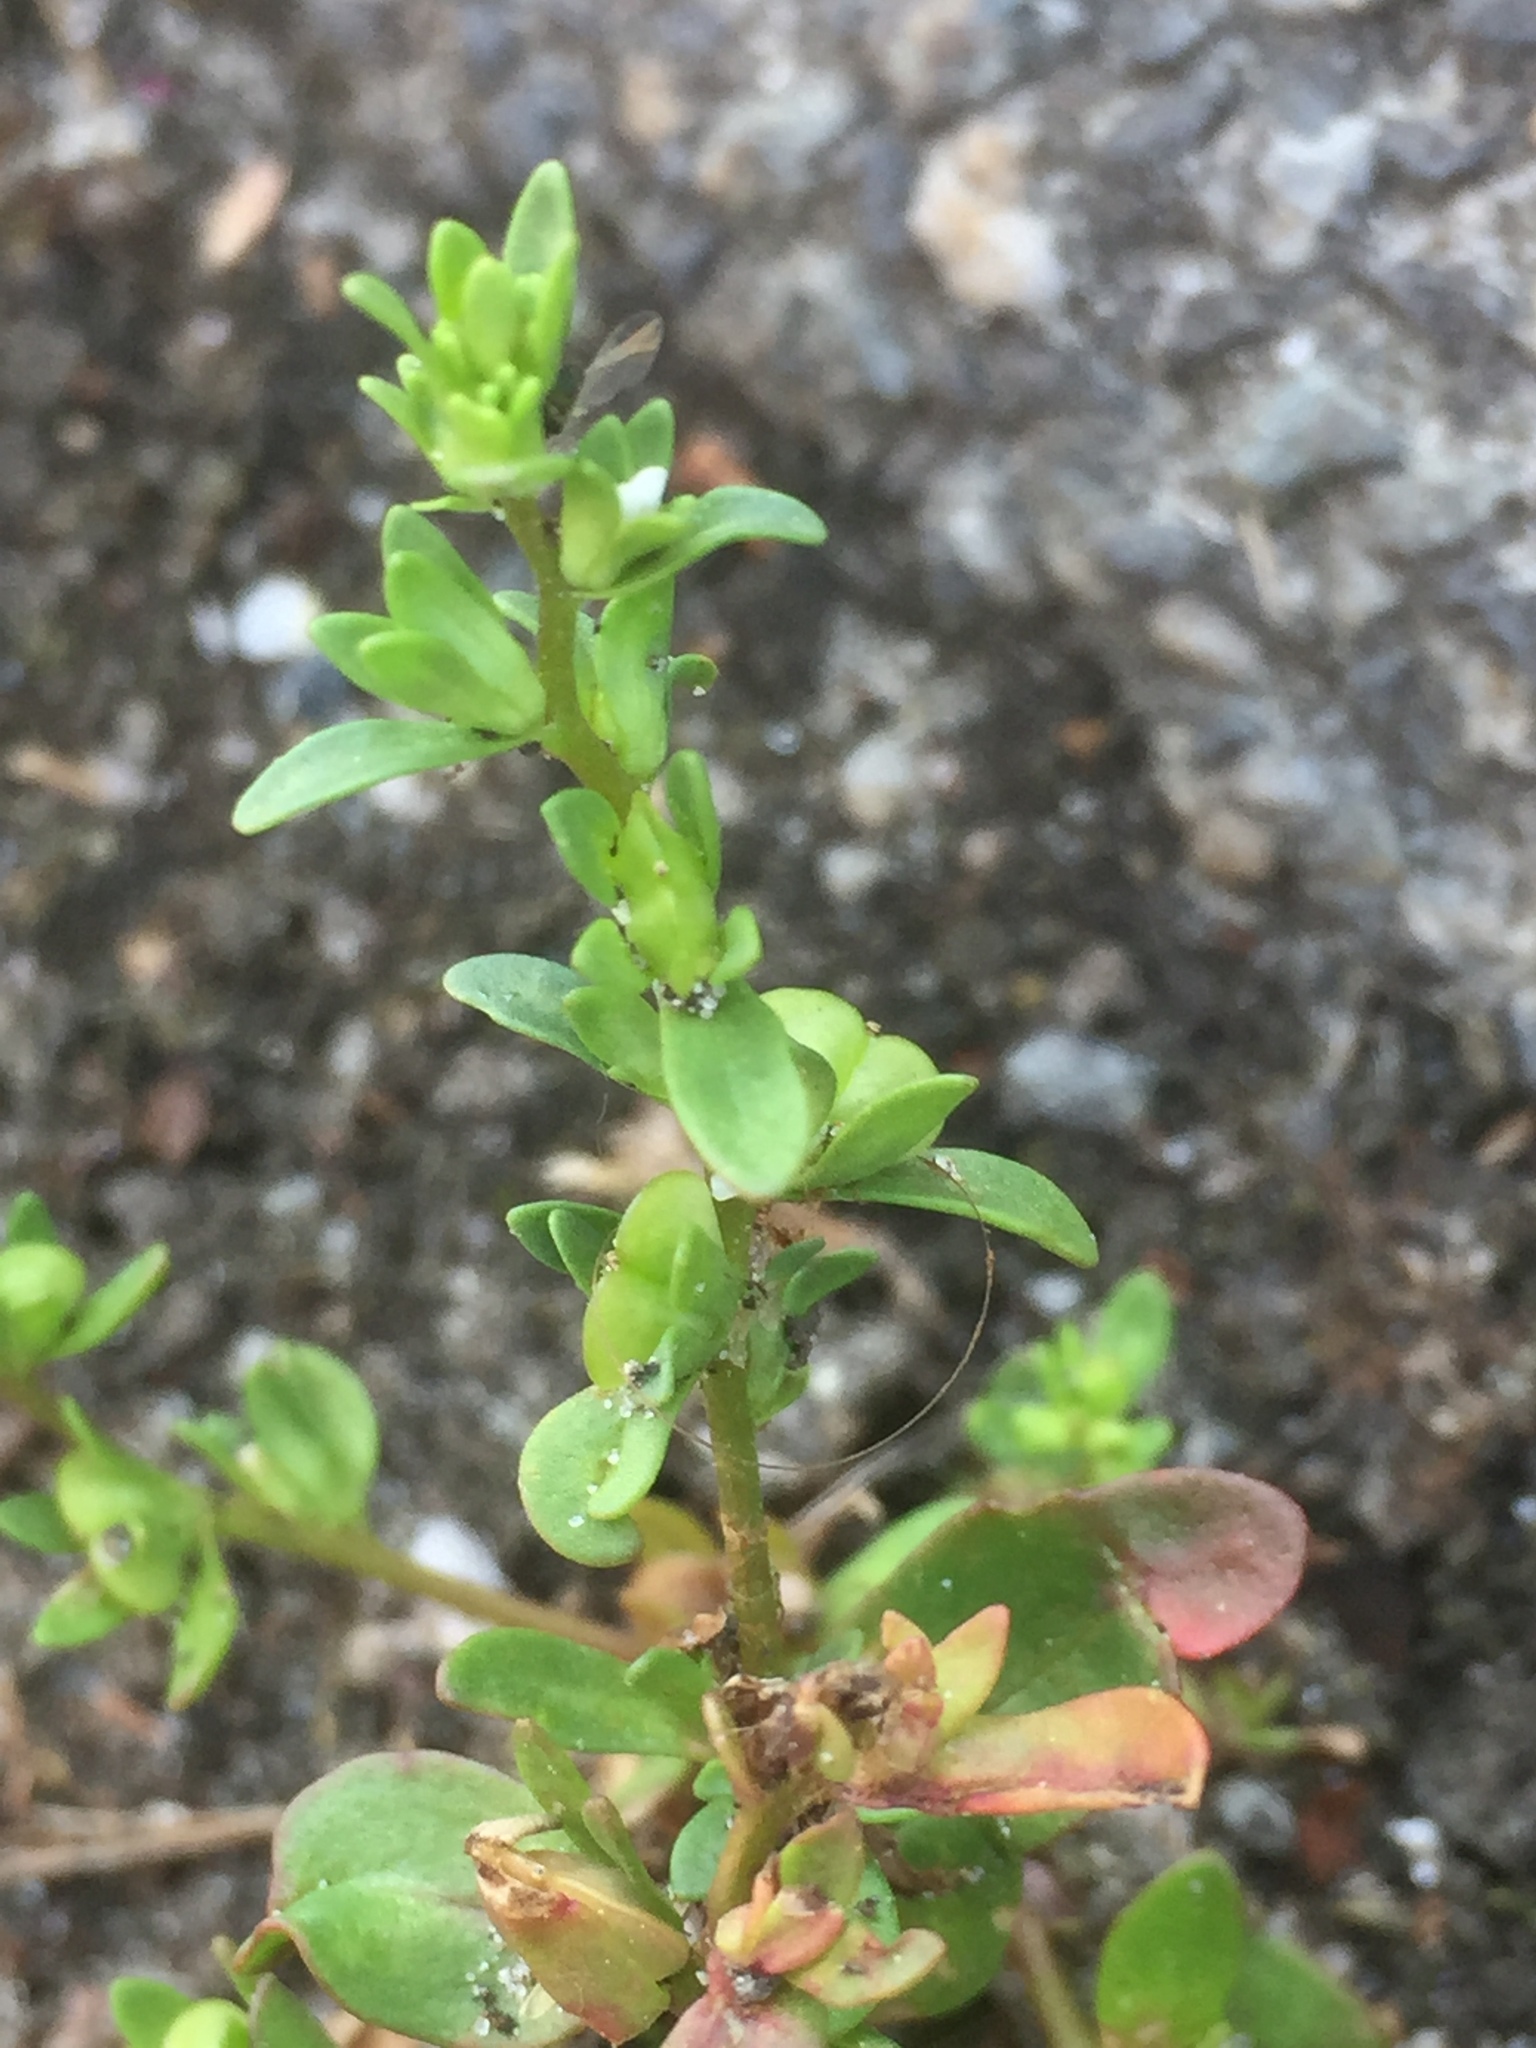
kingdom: Plantae
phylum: Tracheophyta
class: Magnoliopsida
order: Lamiales
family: Plantaginaceae
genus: Veronica
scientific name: Veronica peregrina
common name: Neckweed
